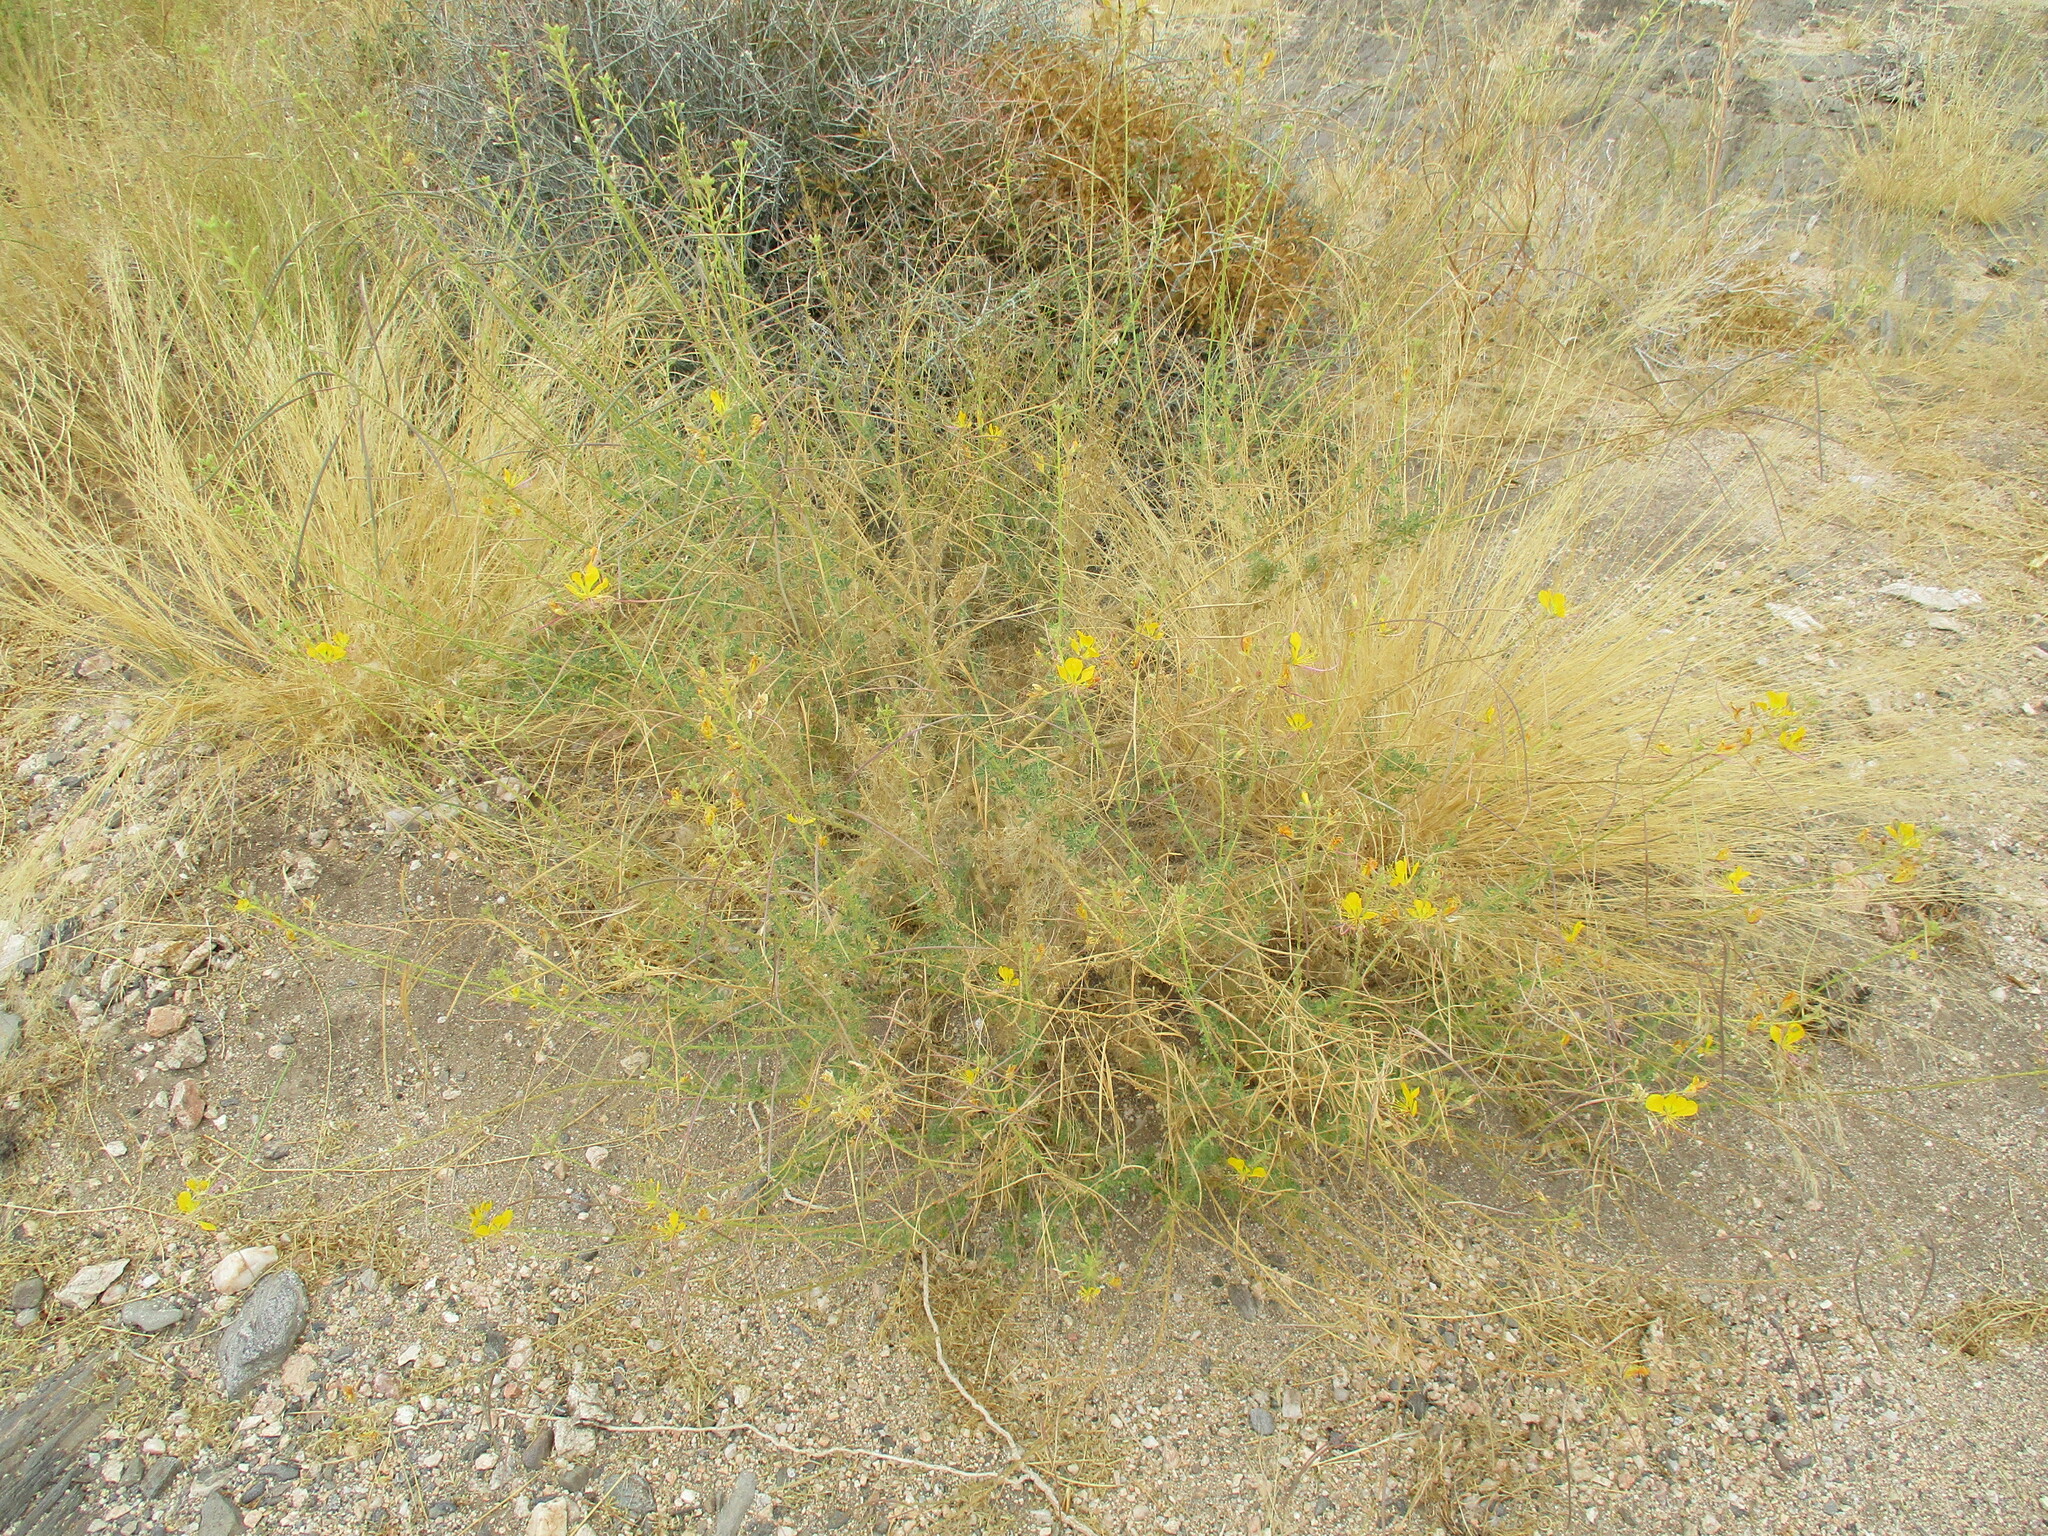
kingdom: Plantae
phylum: Tracheophyta
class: Magnoliopsida
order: Brassicales
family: Cleomaceae
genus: Cleome
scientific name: Cleome foliosa
